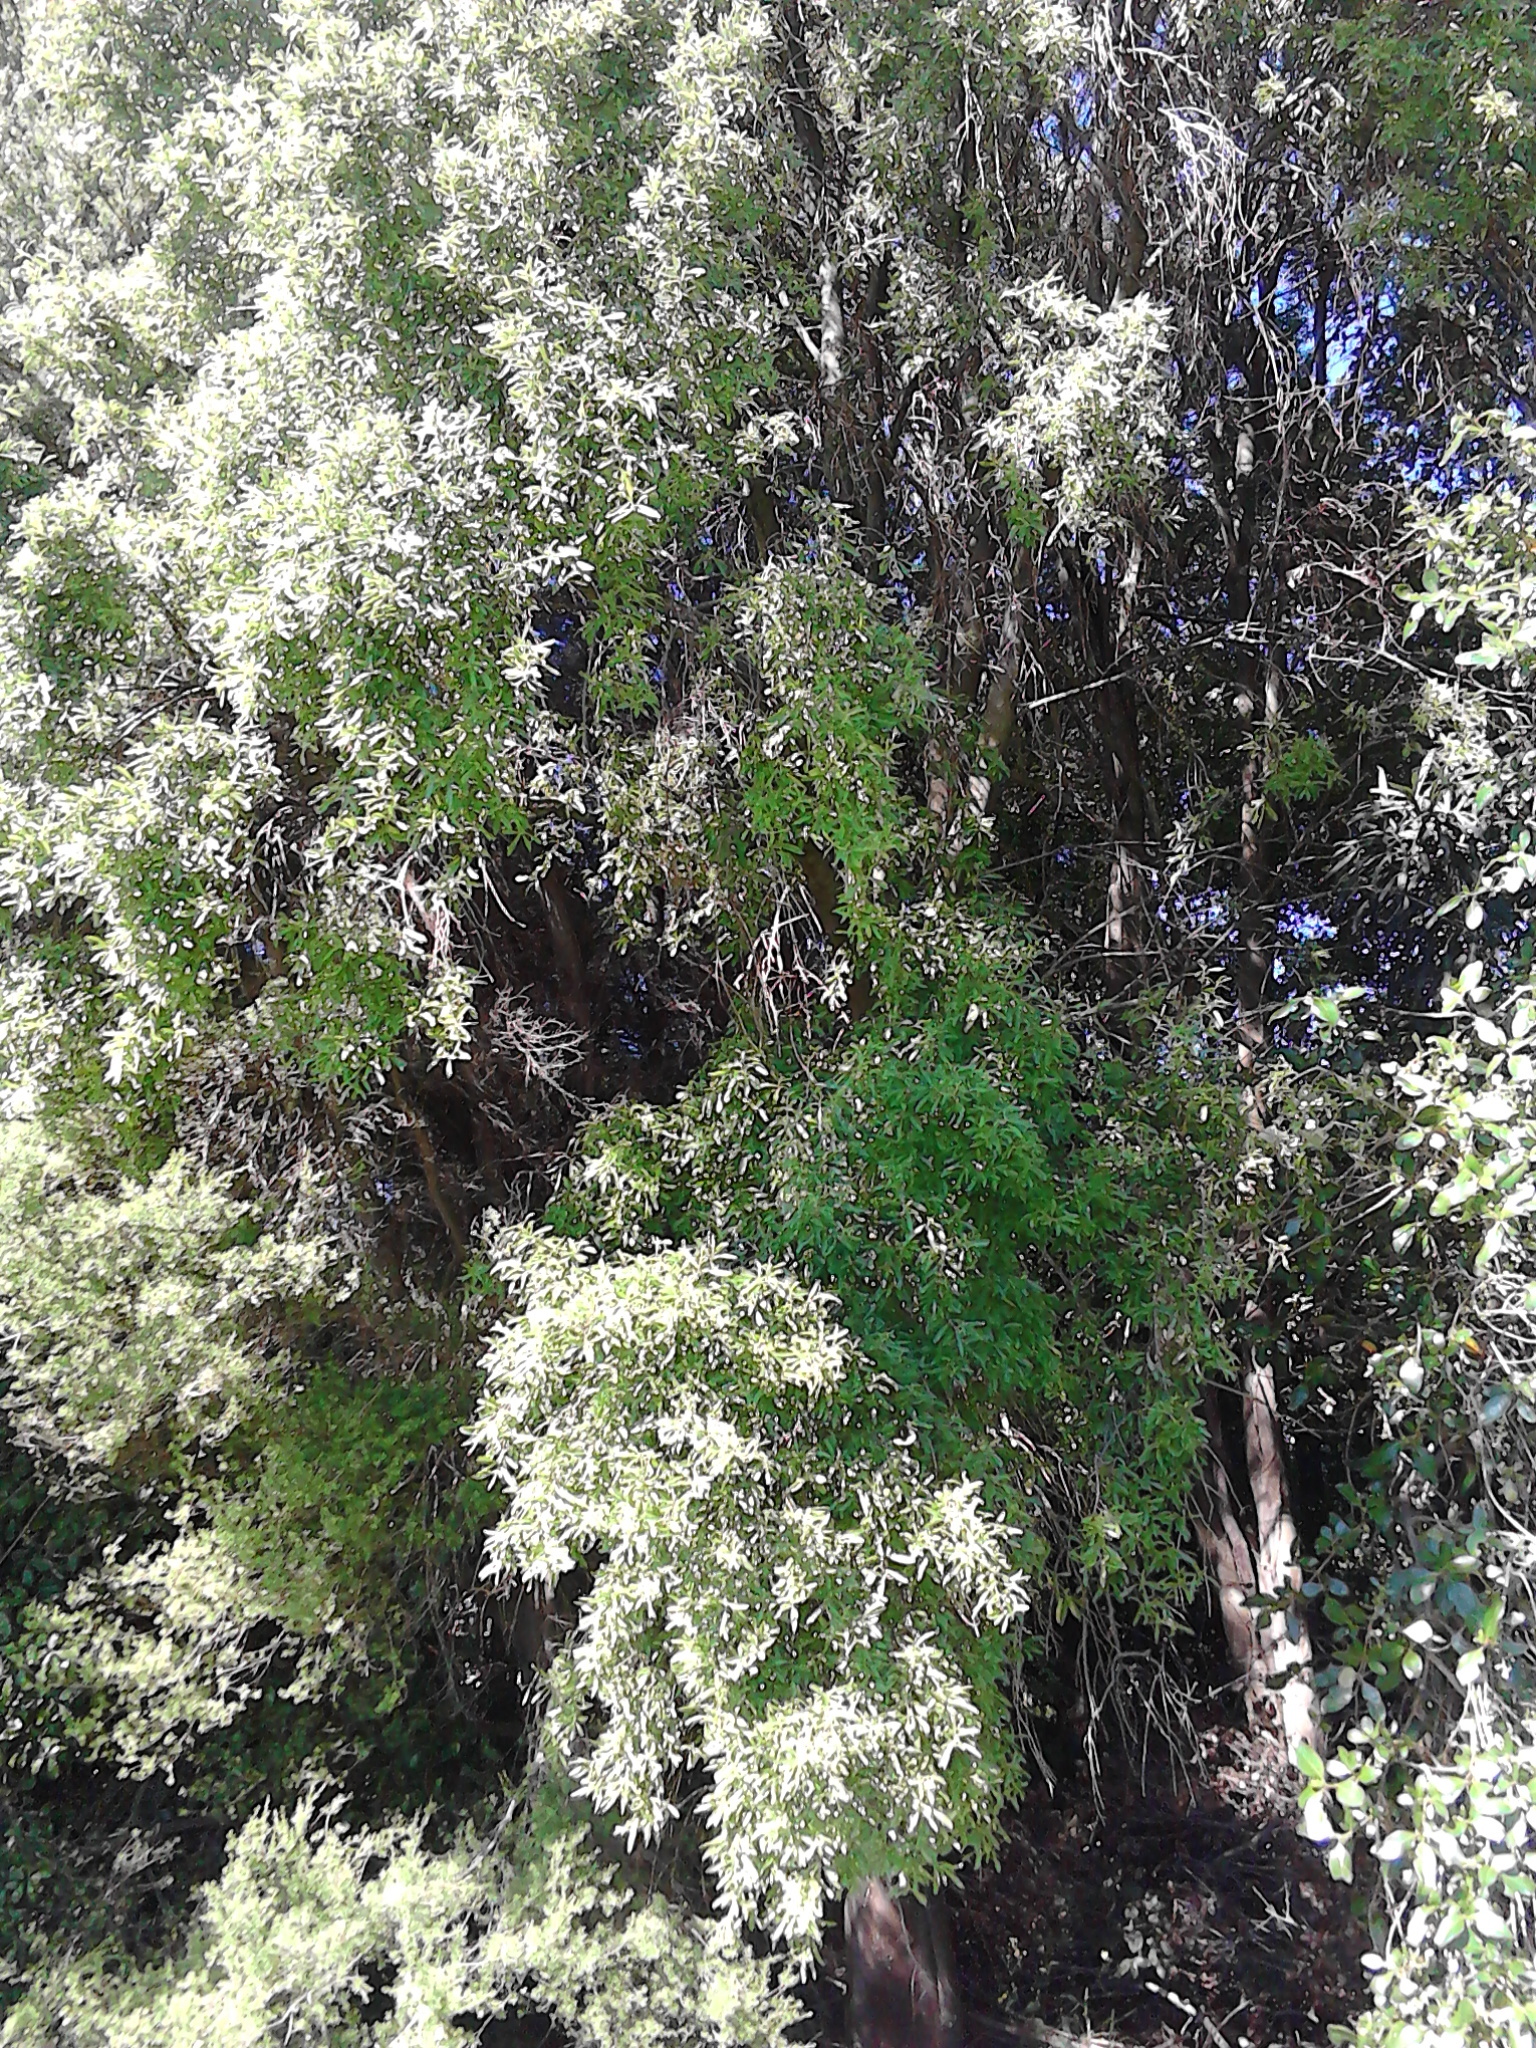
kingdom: Plantae
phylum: Tracheophyta
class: Magnoliopsida
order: Malvales
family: Malvaceae
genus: Hoheria
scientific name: Hoheria angustifolia
